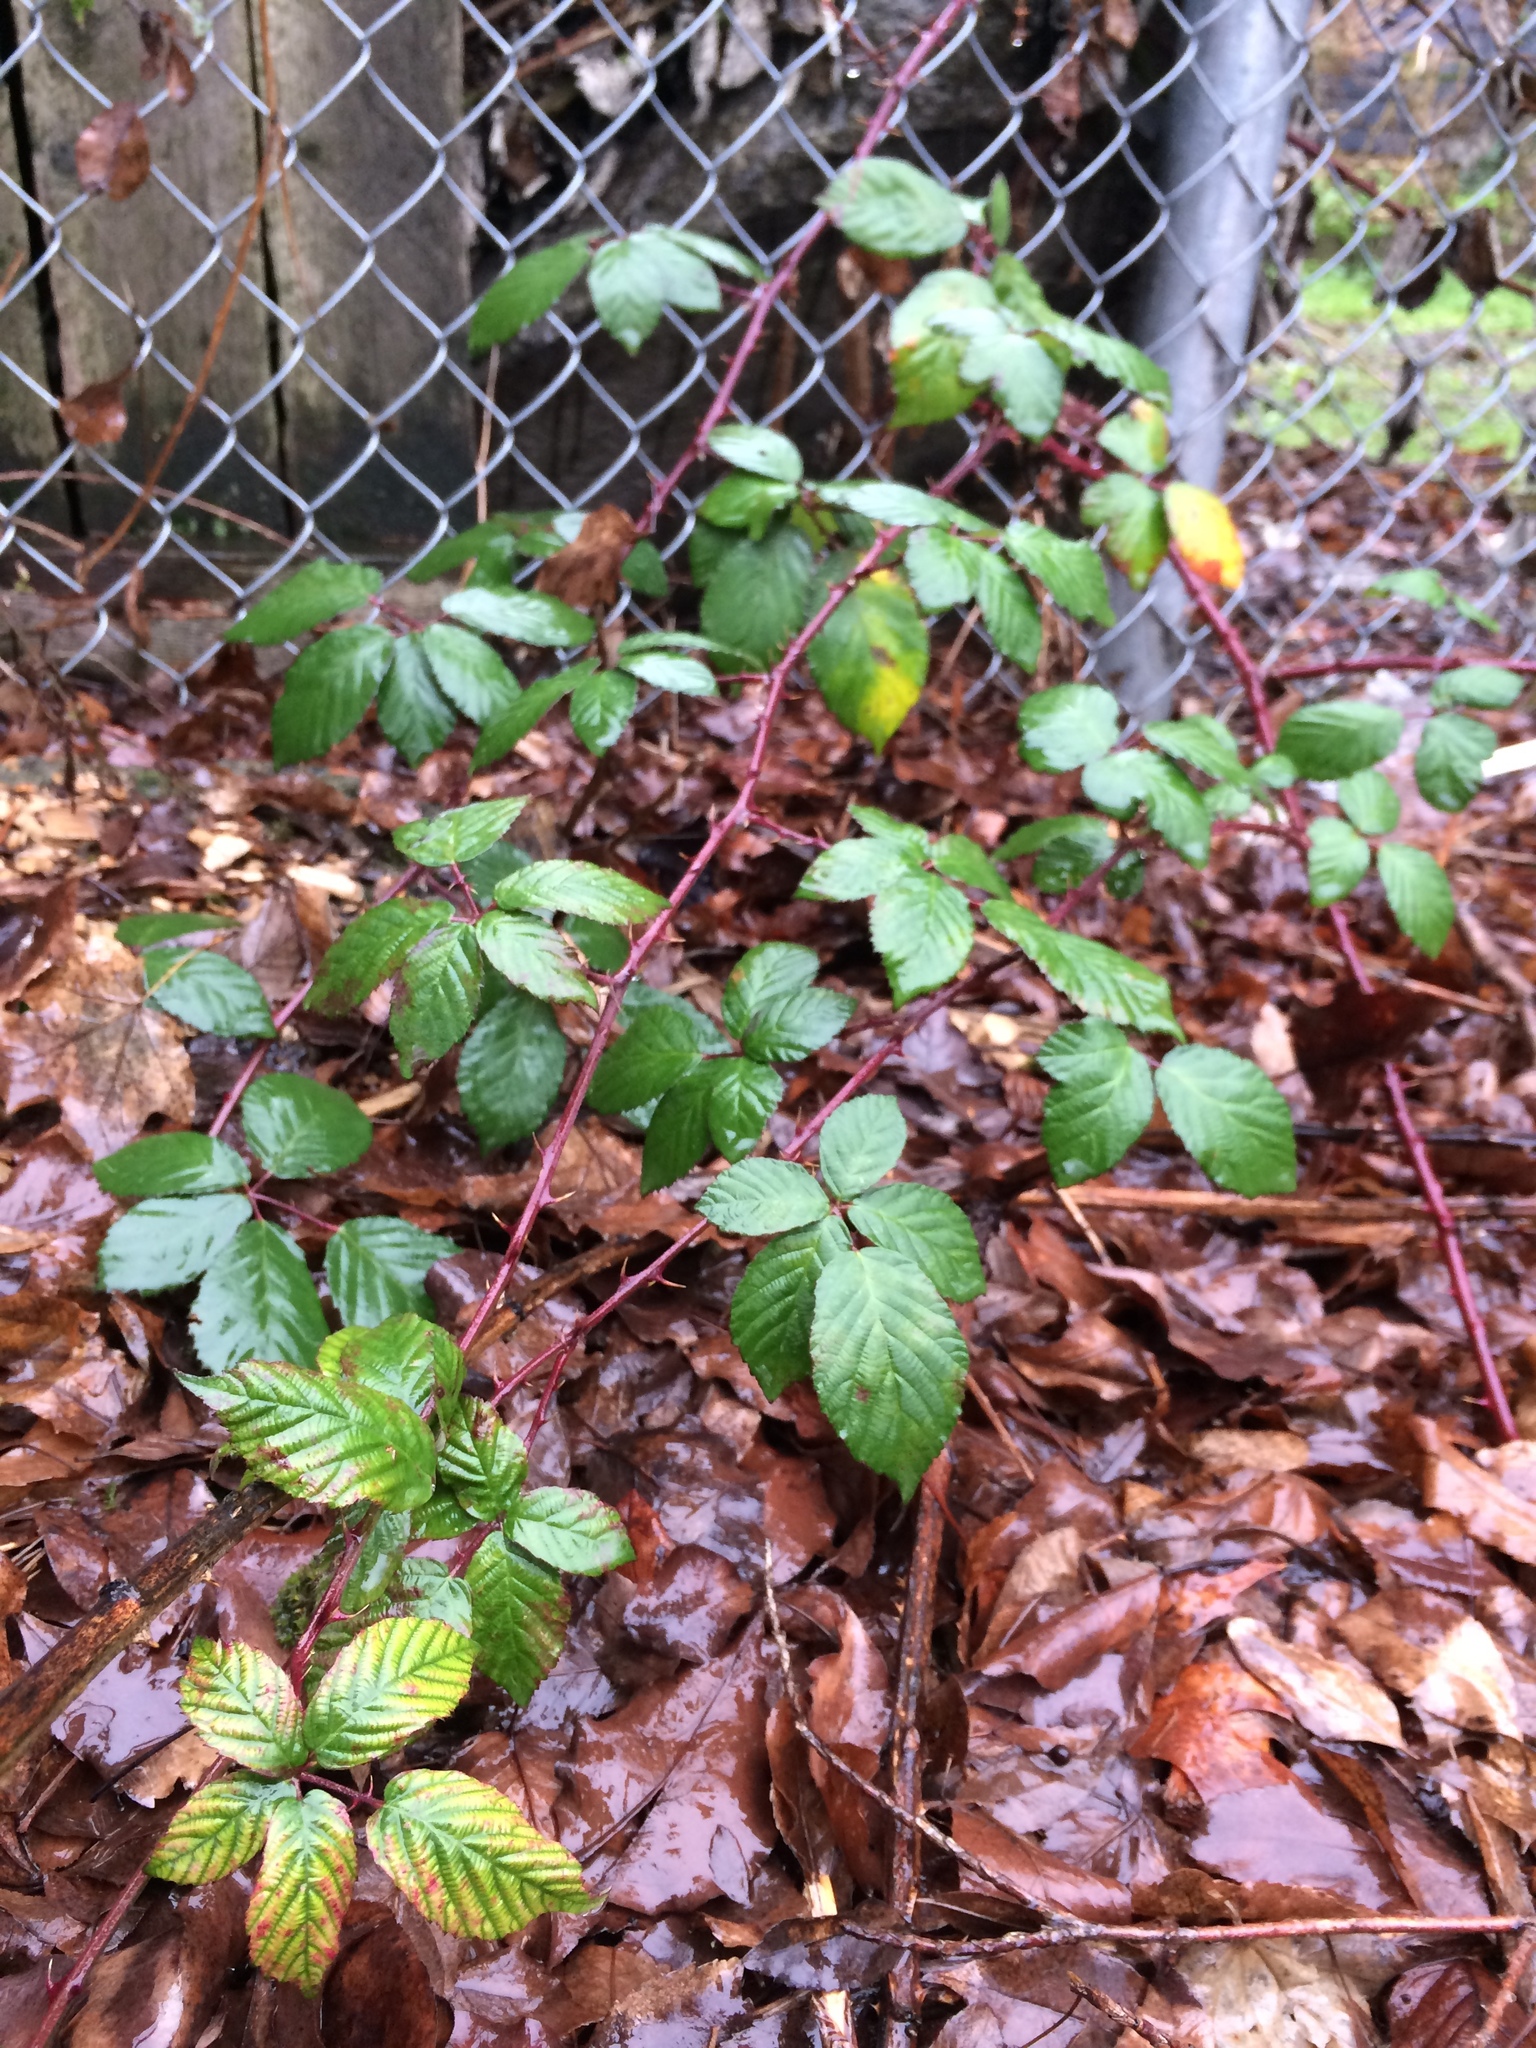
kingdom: Plantae
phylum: Tracheophyta
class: Magnoliopsida
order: Rosales
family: Rosaceae
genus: Rubus
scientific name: Rubus armeniacus
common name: Himalayan blackberry
